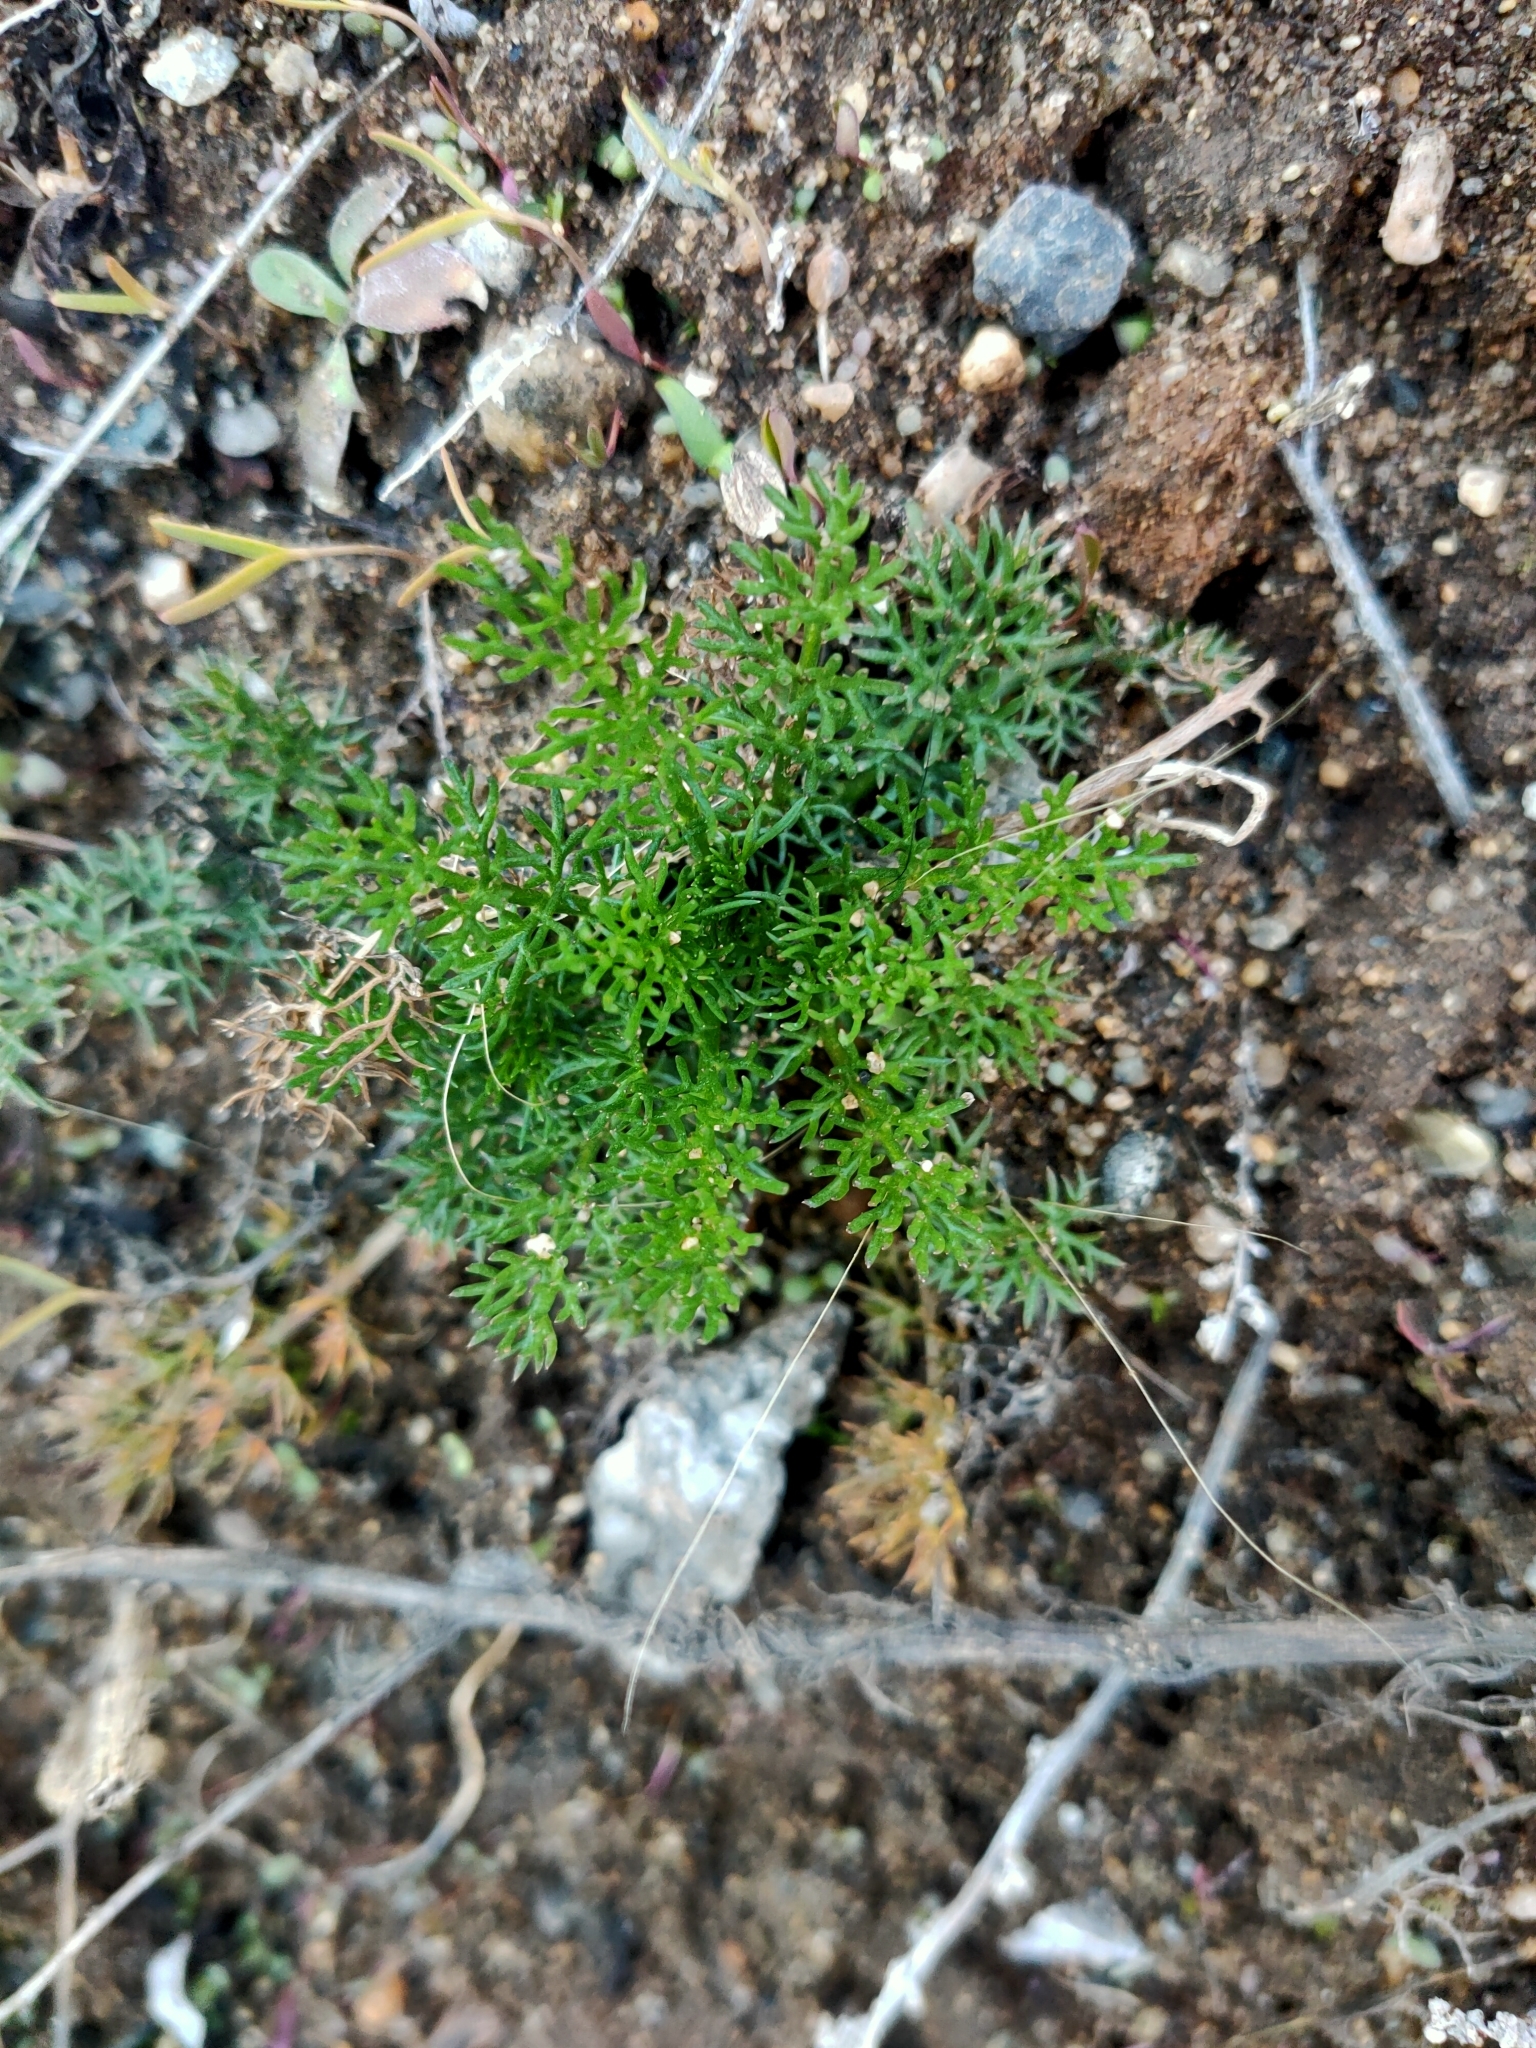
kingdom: Plantae
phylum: Tracheophyta
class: Magnoliopsida
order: Asterales
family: Asteraceae
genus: Tripleurospermum
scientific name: Tripleurospermum inodorum
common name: Scentless mayweed
